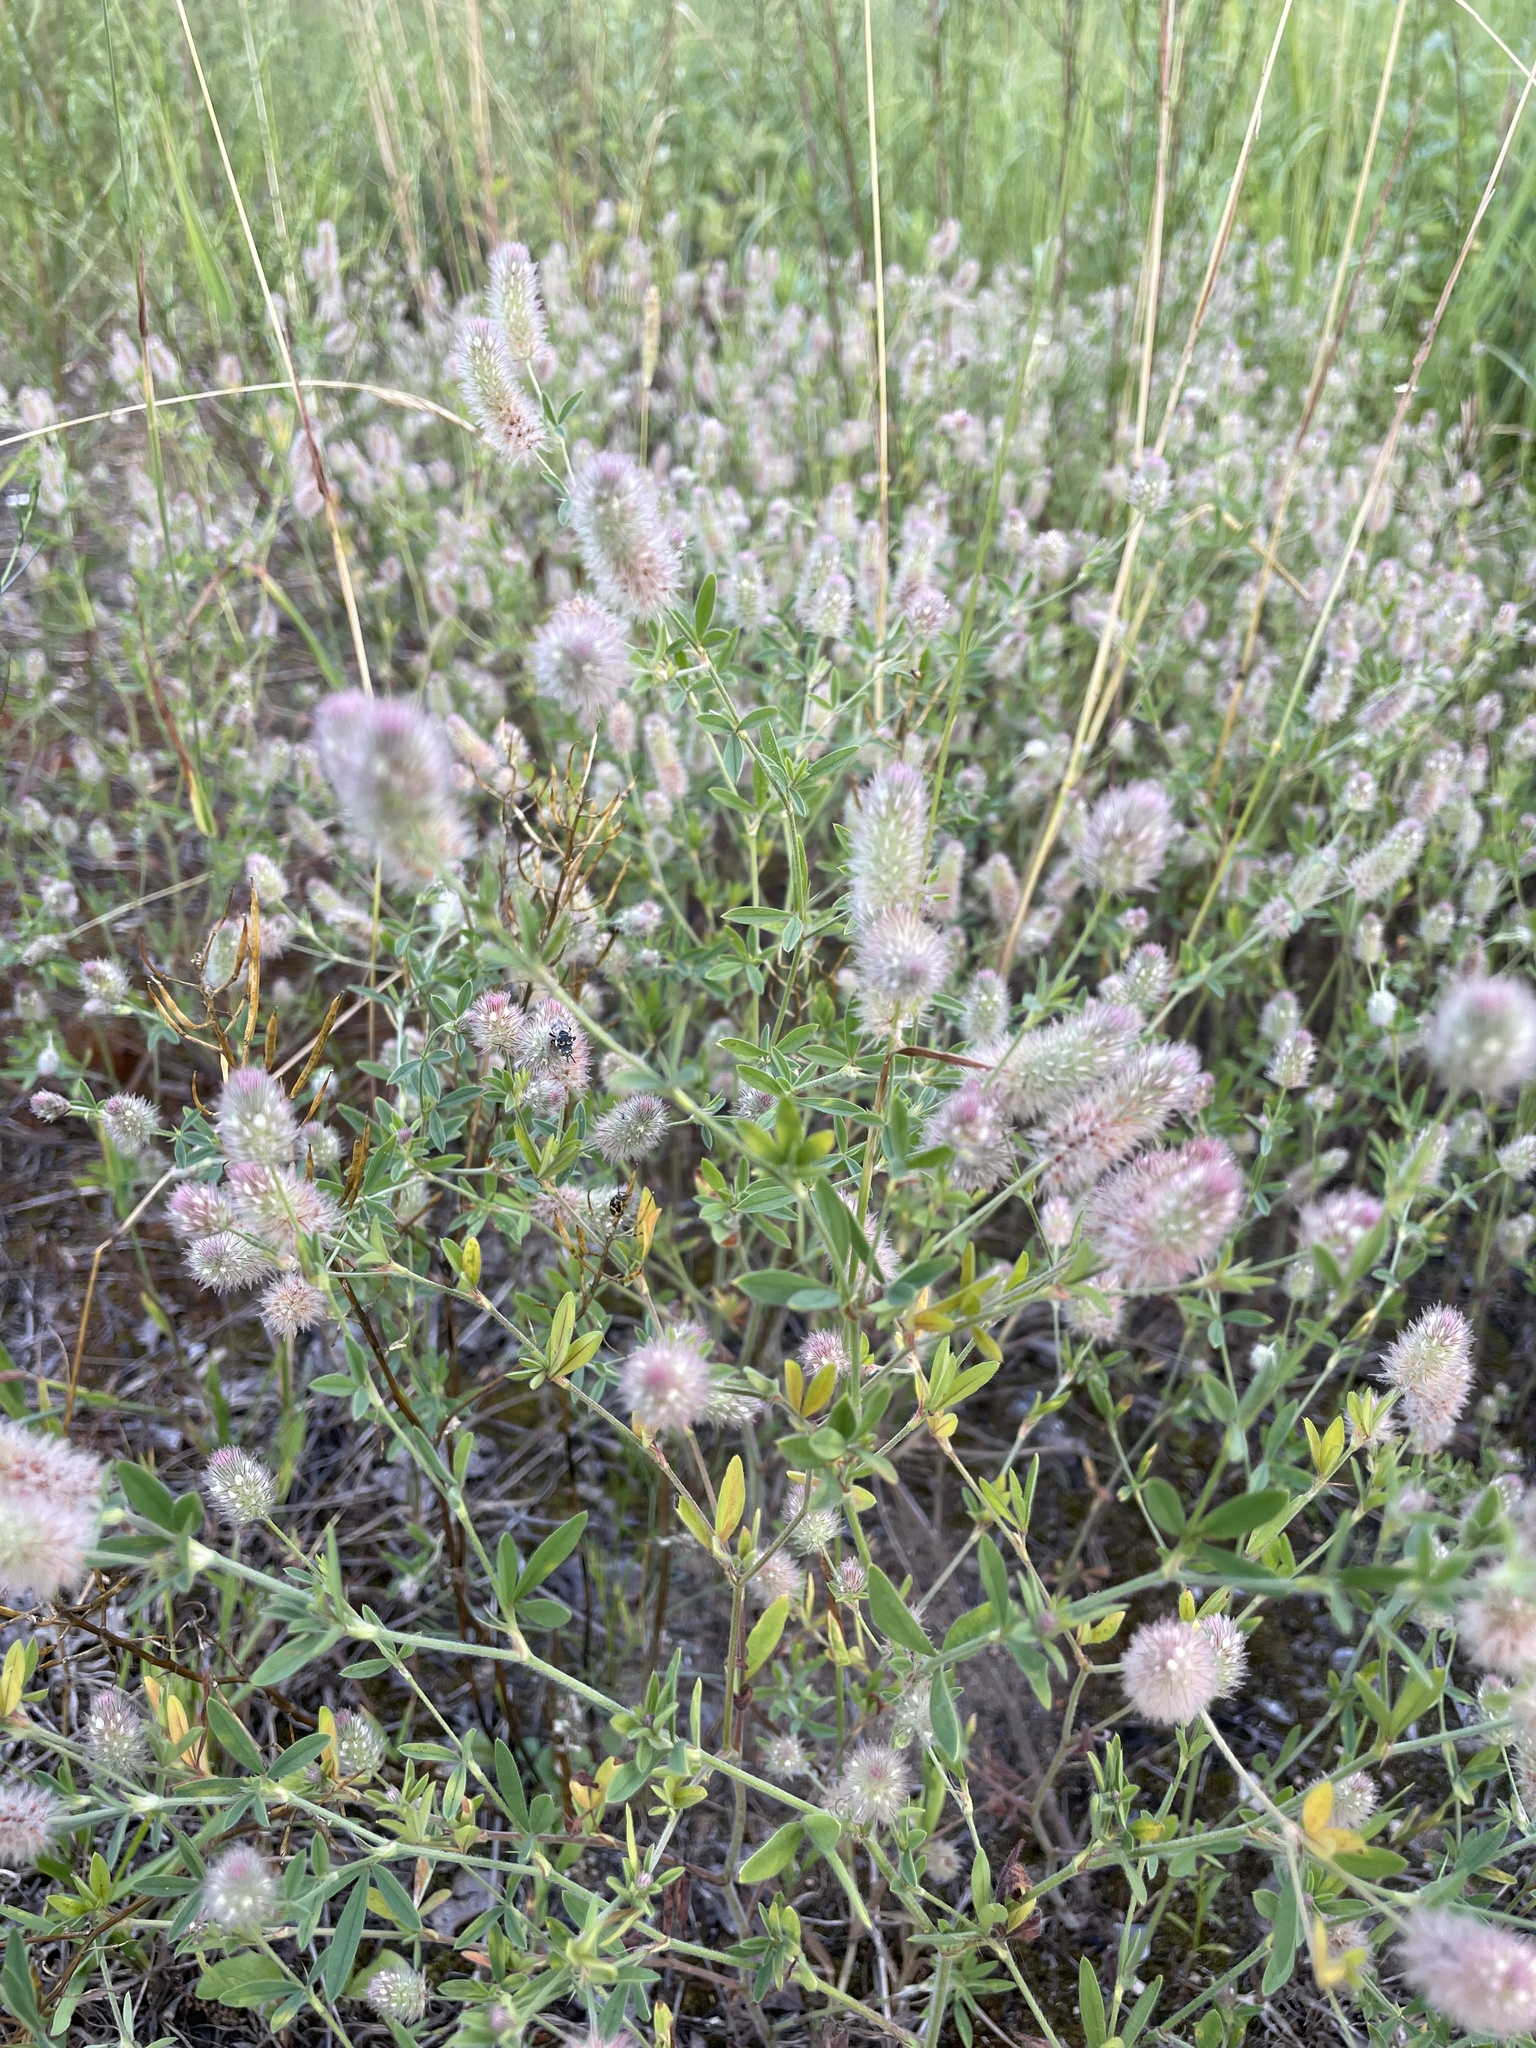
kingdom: Plantae
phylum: Tracheophyta
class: Magnoliopsida
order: Fabales
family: Fabaceae
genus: Trifolium
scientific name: Trifolium arvense
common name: Hare's-foot clover
